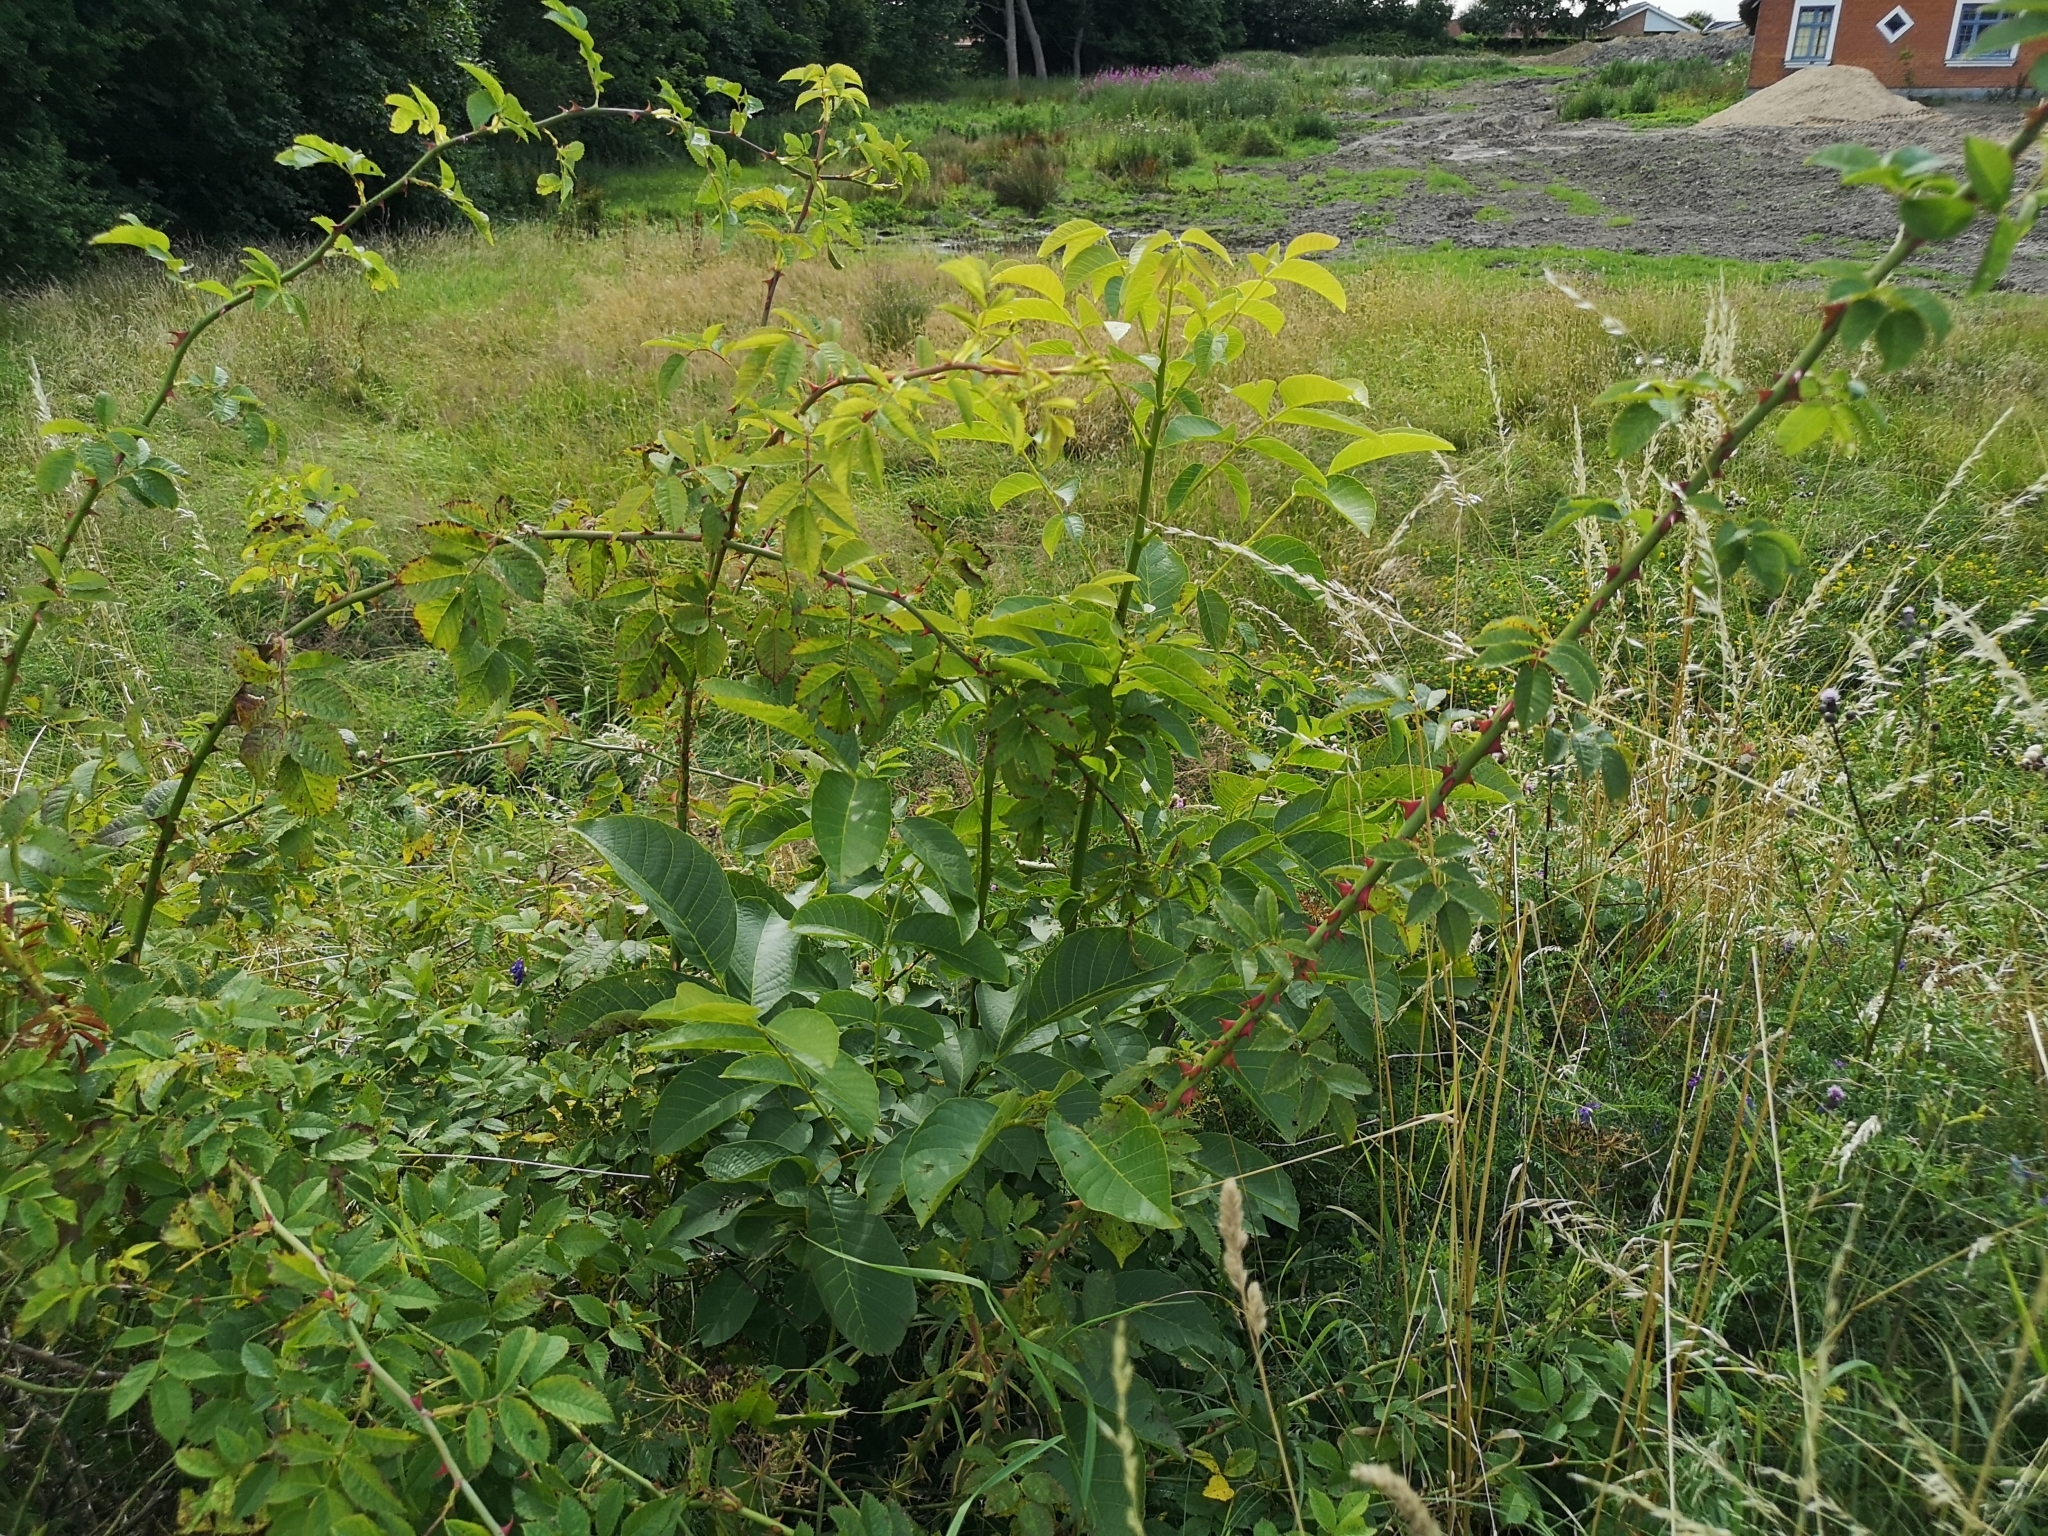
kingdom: Plantae
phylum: Tracheophyta
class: Magnoliopsida
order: Fagales
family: Juglandaceae
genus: Juglans
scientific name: Juglans regia
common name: Walnut
